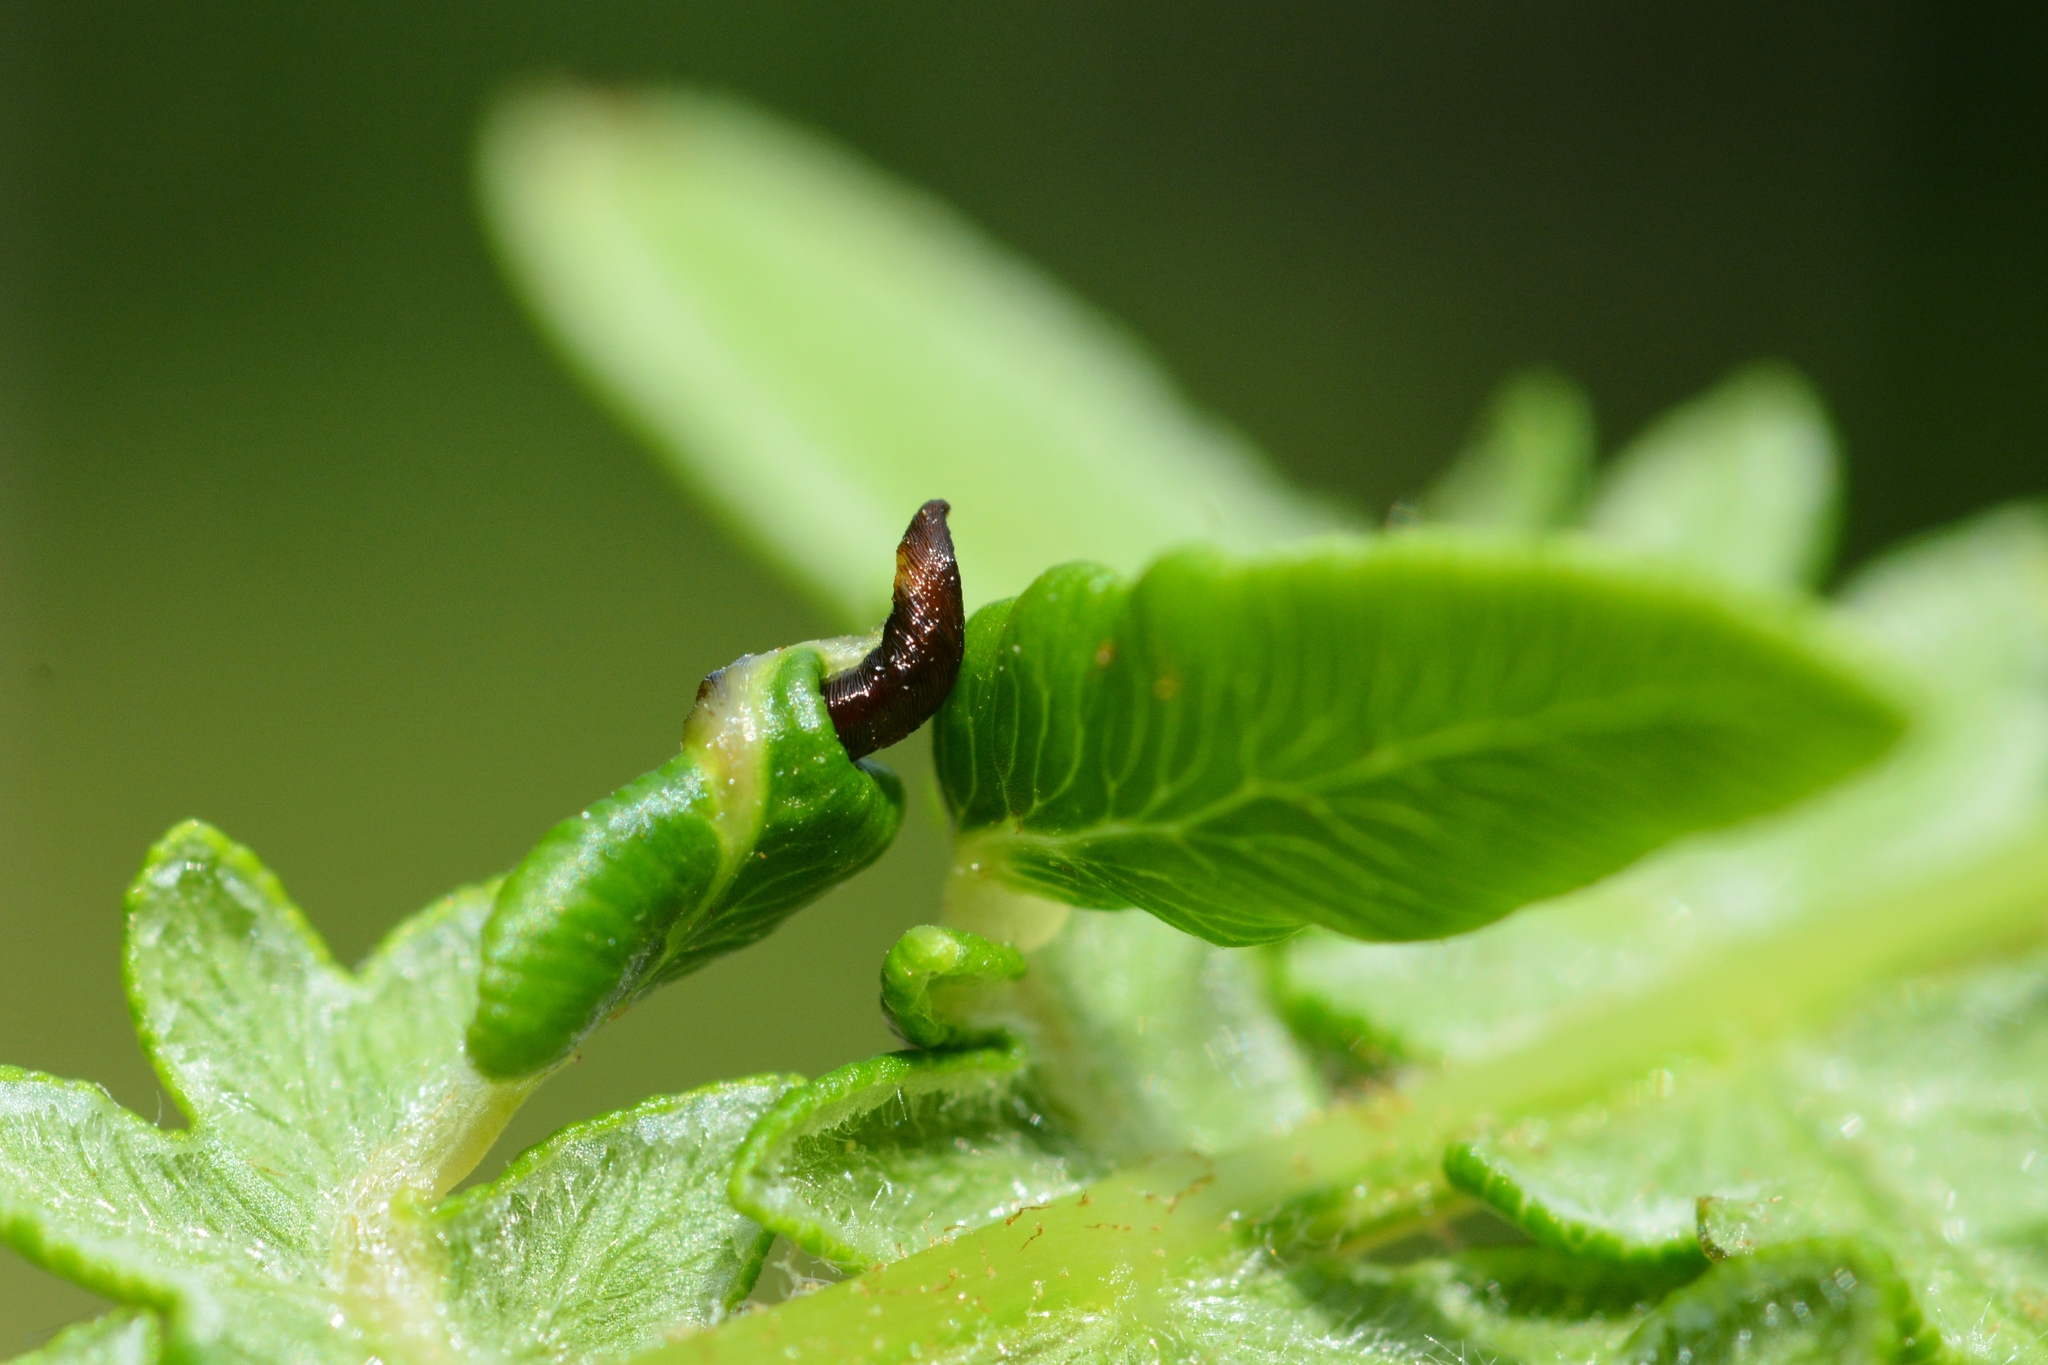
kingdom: Animalia
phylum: Arthropoda
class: Insecta
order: Diptera
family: Cecidomyiidae
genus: Dasineura
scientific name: Dasineura pteridis
